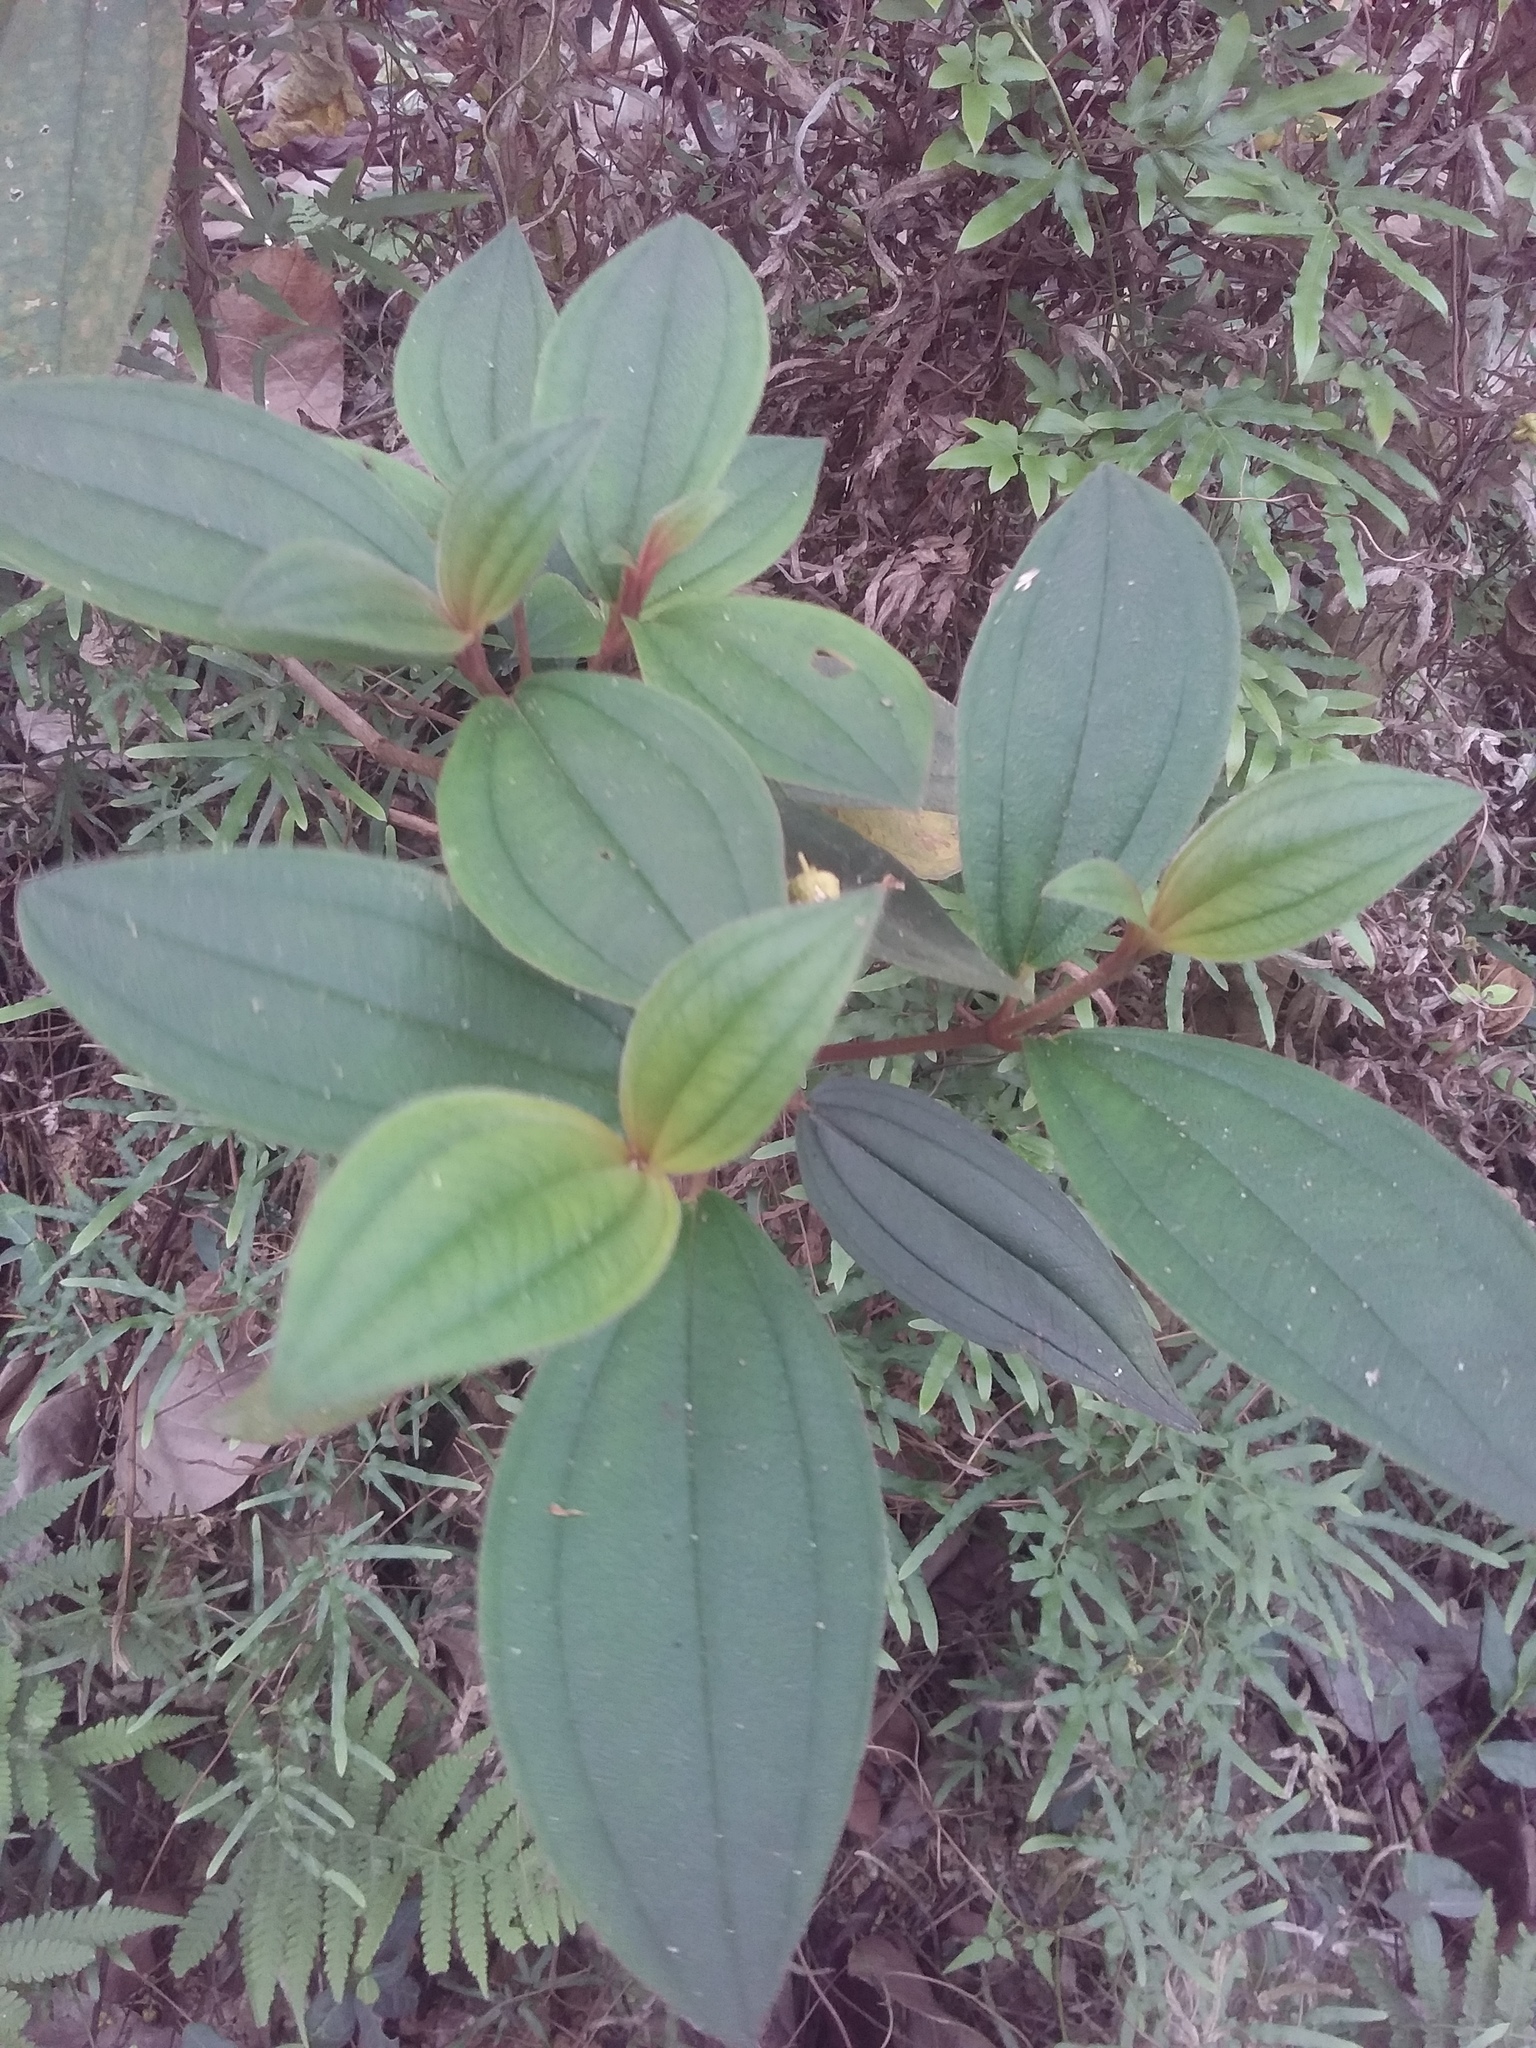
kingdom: Plantae
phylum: Tracheophyta
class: Magnoliopsida
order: Myrtales
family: Melastomataceae
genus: Melastoma
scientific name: Melastoma malabathricum
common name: Indian-rhododendron
